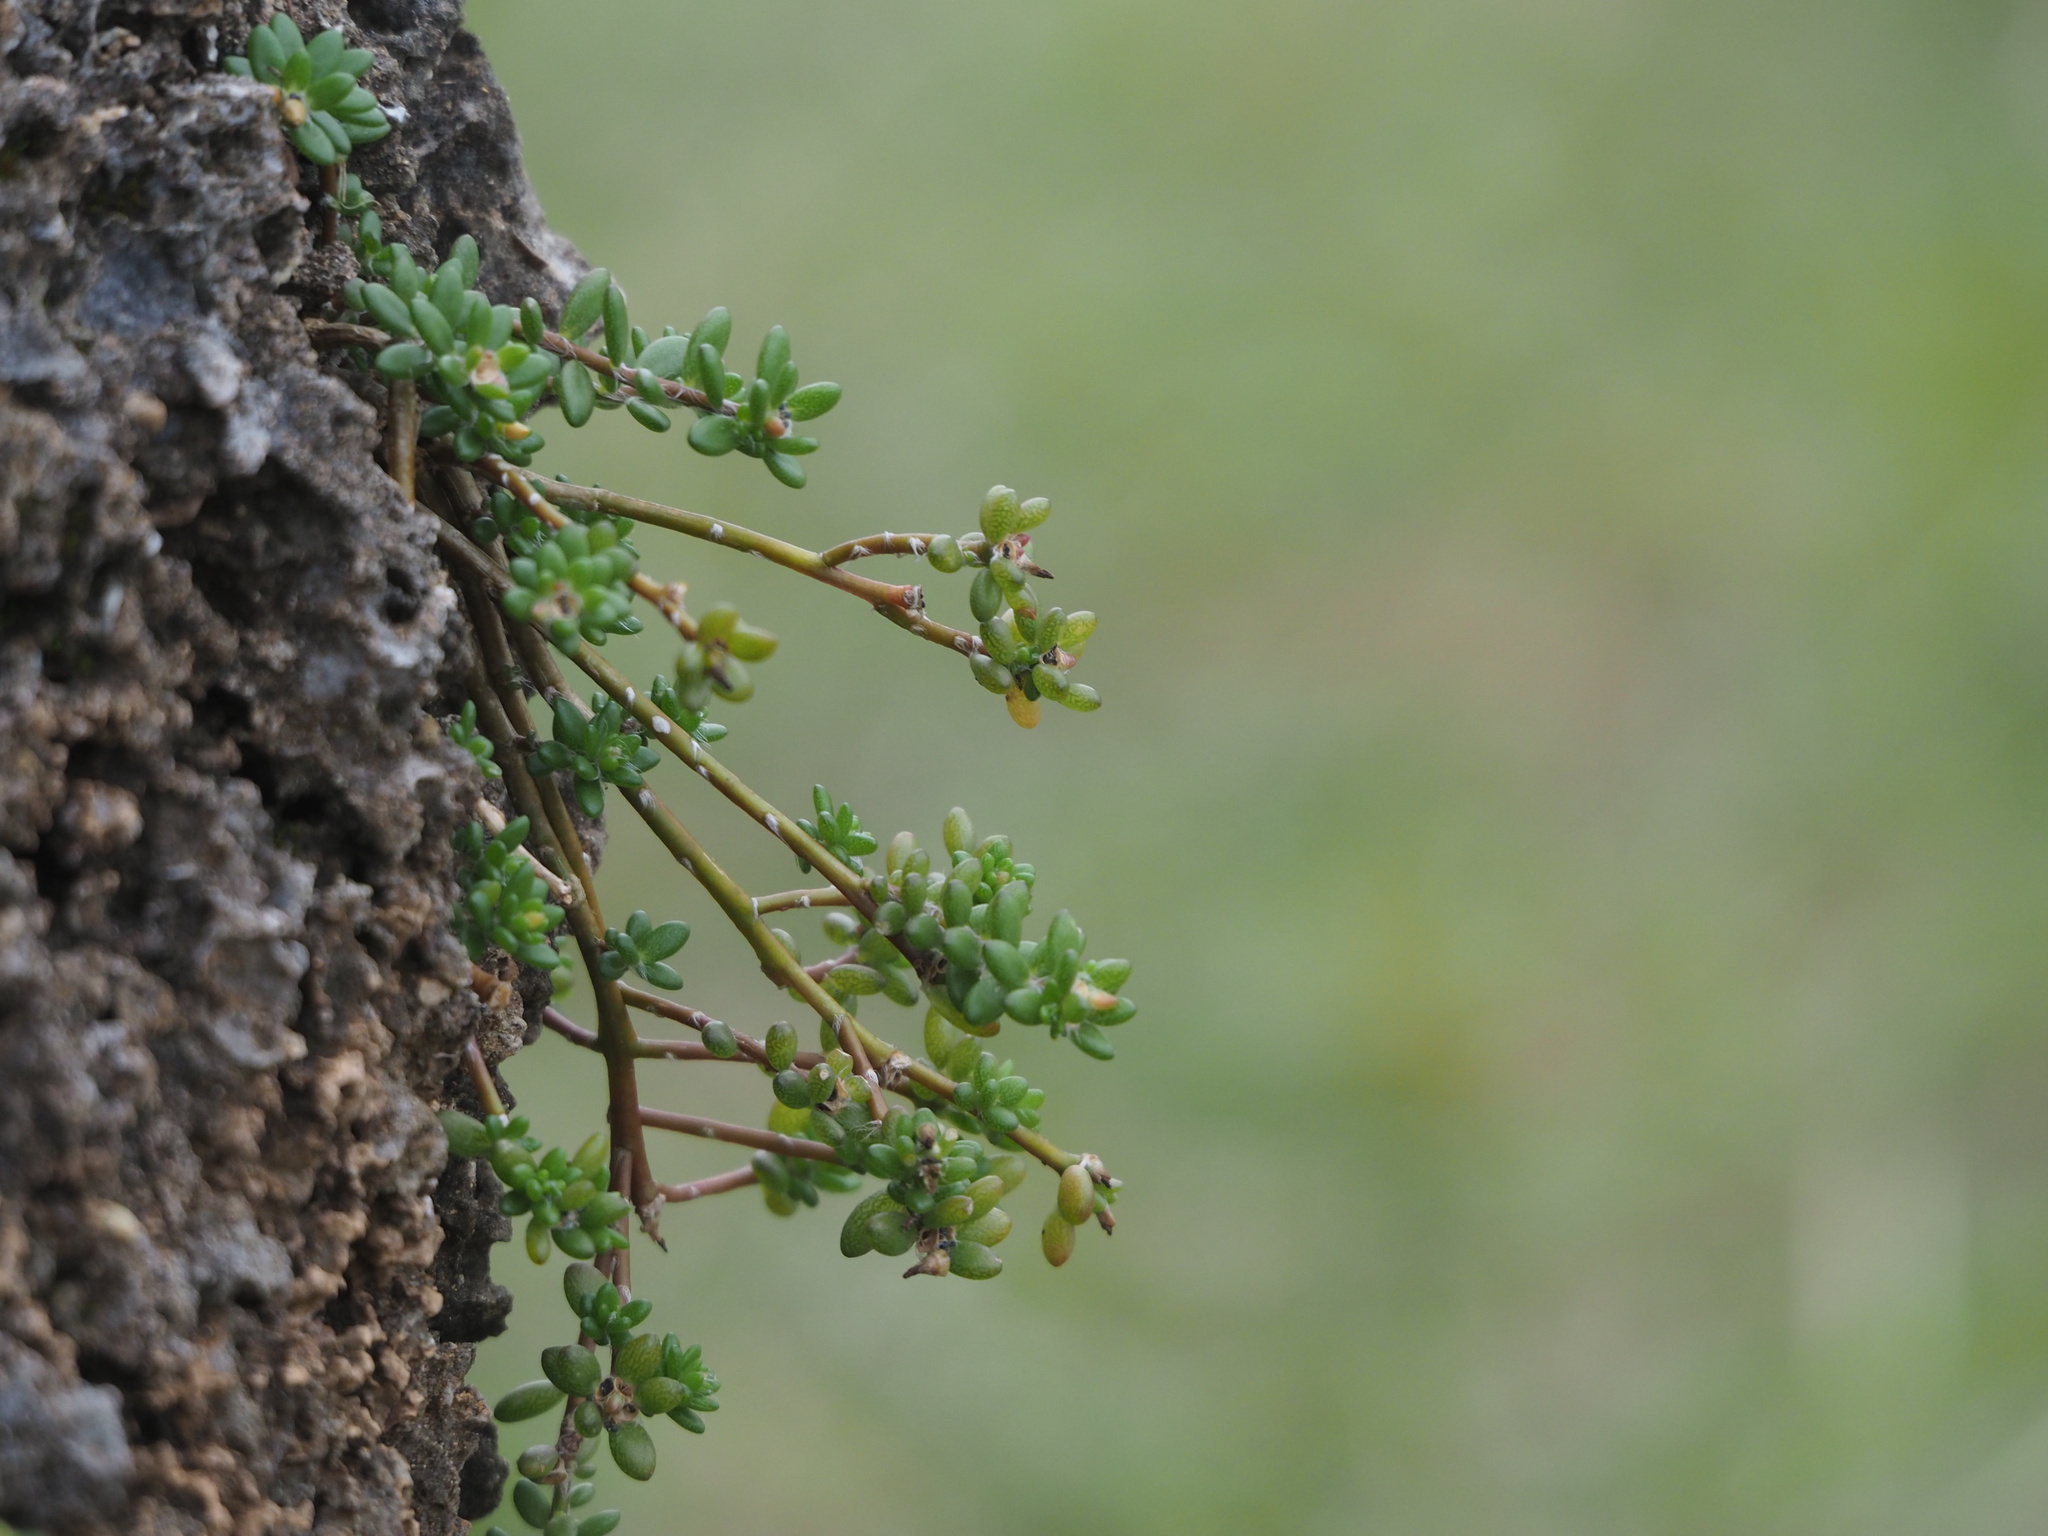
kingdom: Plantae
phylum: Tracheophyta
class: Magnoliopsida
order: Caryophyllales
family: Portulacaceae
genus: Portulaca
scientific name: Portulaca psammotropha
